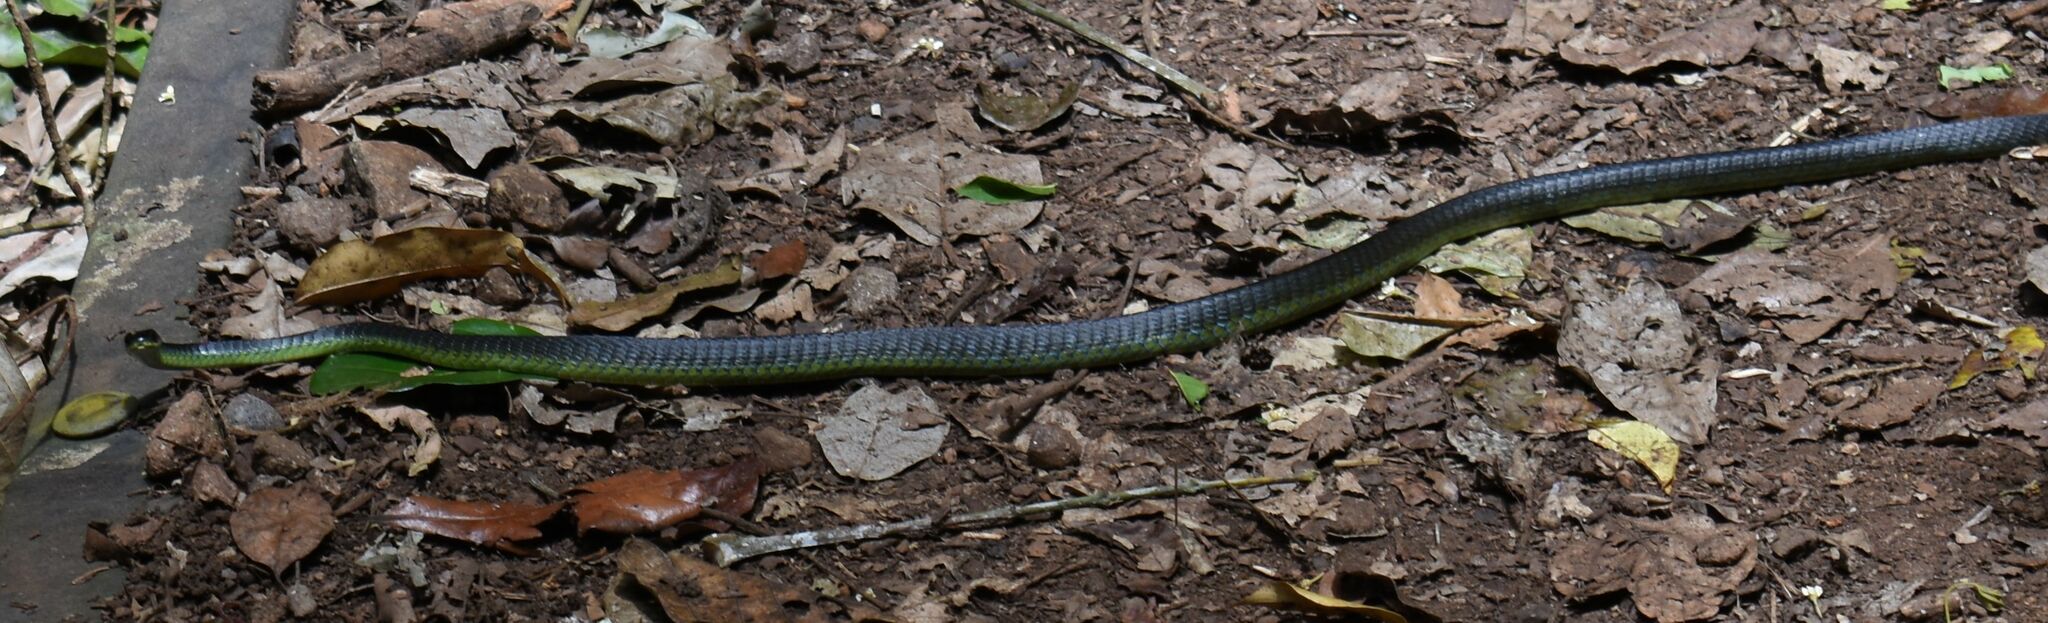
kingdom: Animalia
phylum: Chordata
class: Squamata
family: Colubridae
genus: Dendrelaphis
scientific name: Dendrelaphis punctulatus
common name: Common tree snake
